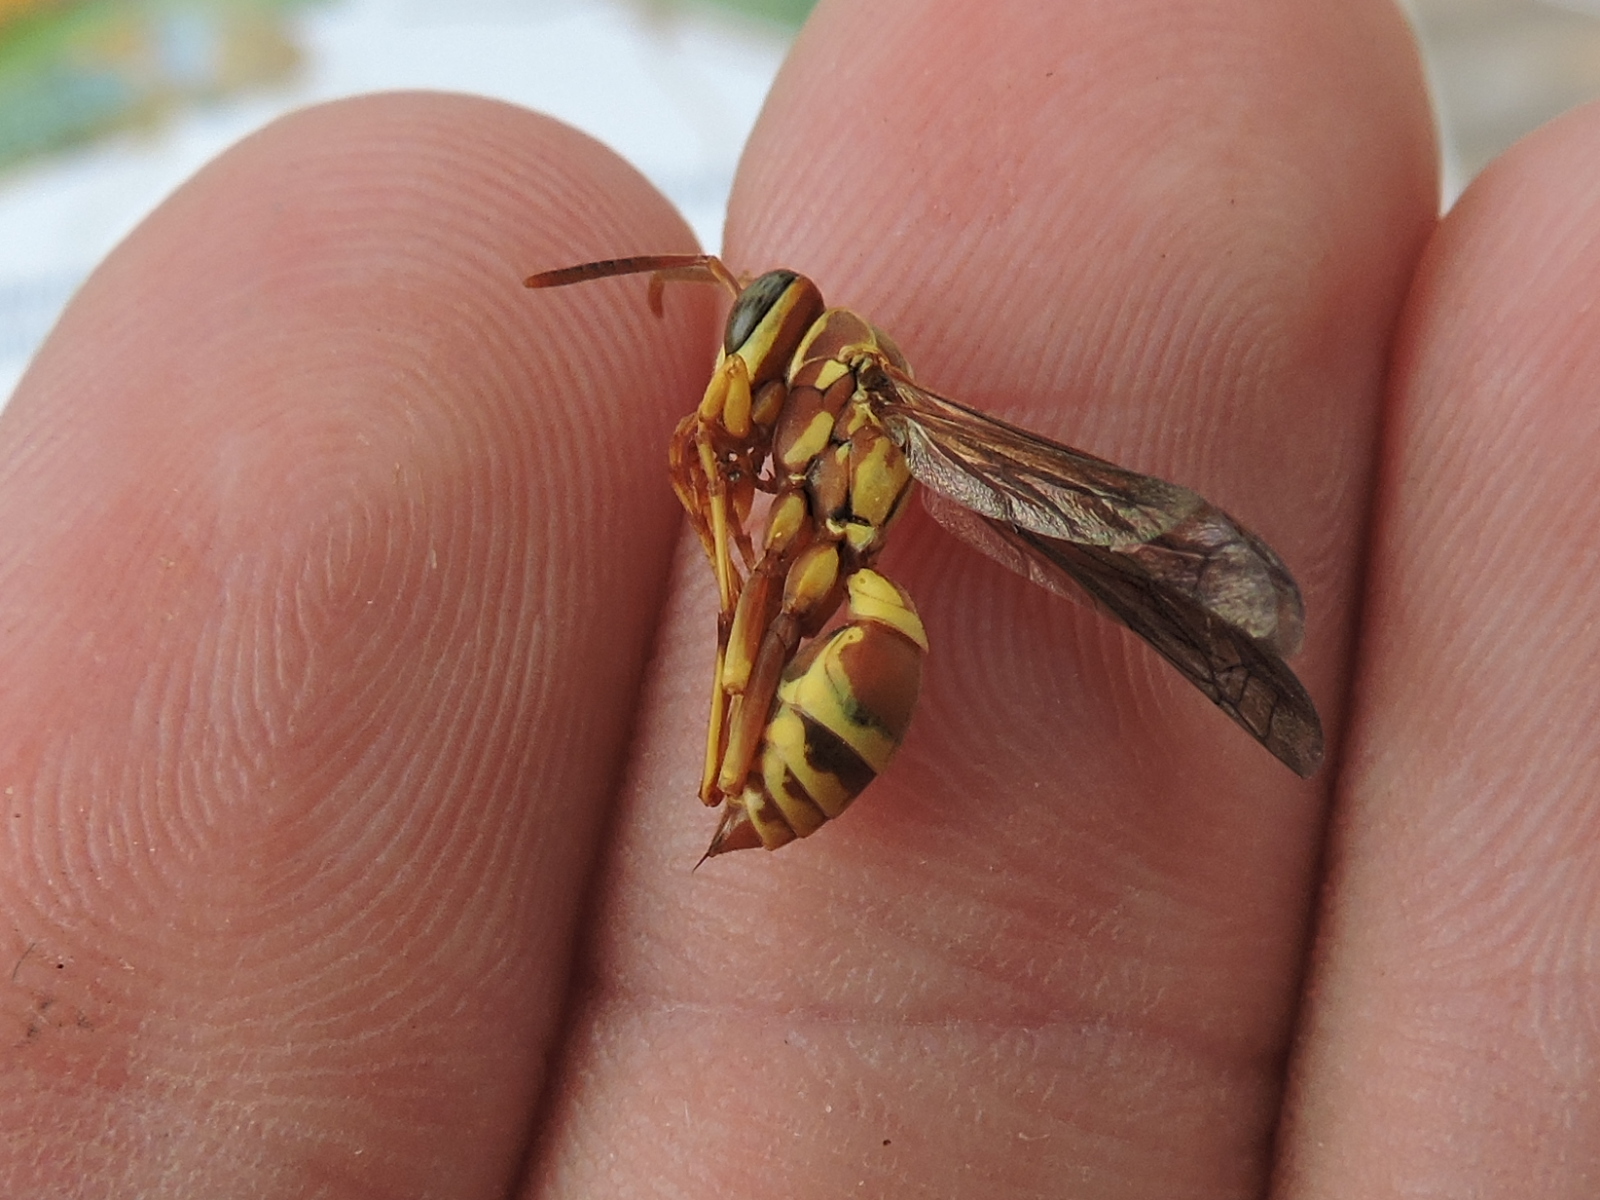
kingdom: Animalia
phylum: Arthropoda
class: Insecta
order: Hymenoptera
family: Eumenidae
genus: Polistes
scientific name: Polistes dorsalis
